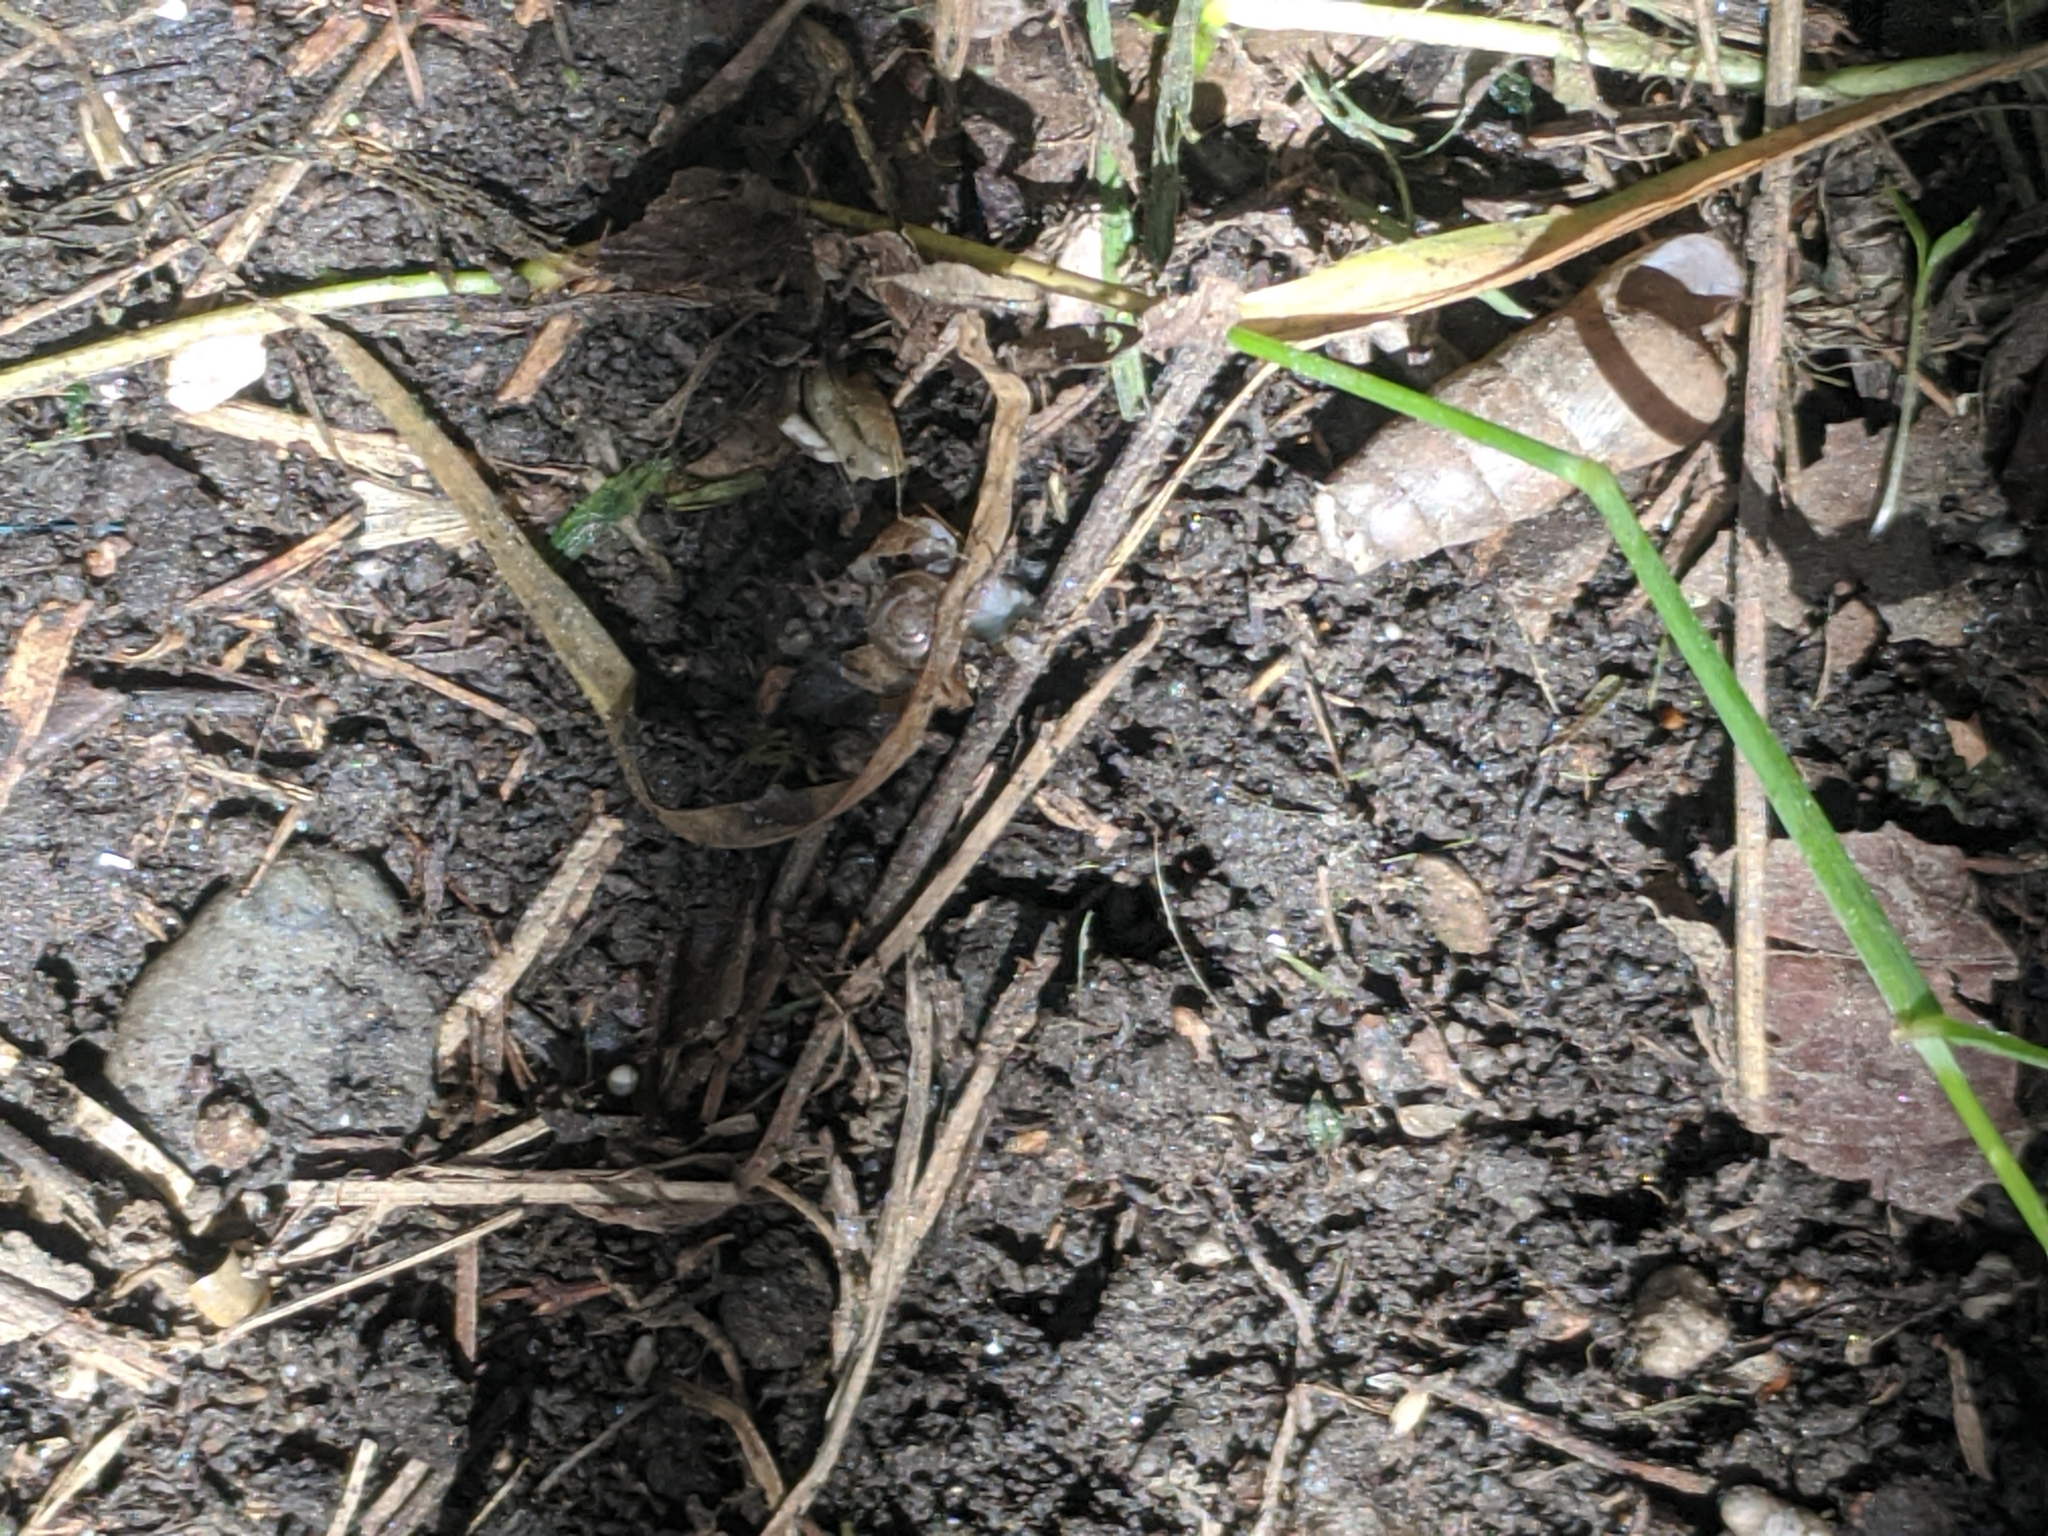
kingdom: Animalia
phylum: Mollusca
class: Gastropoda
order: Stylommatophora
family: Achatinidae
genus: Rumina
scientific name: Rumina decollata
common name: Decollate snail
